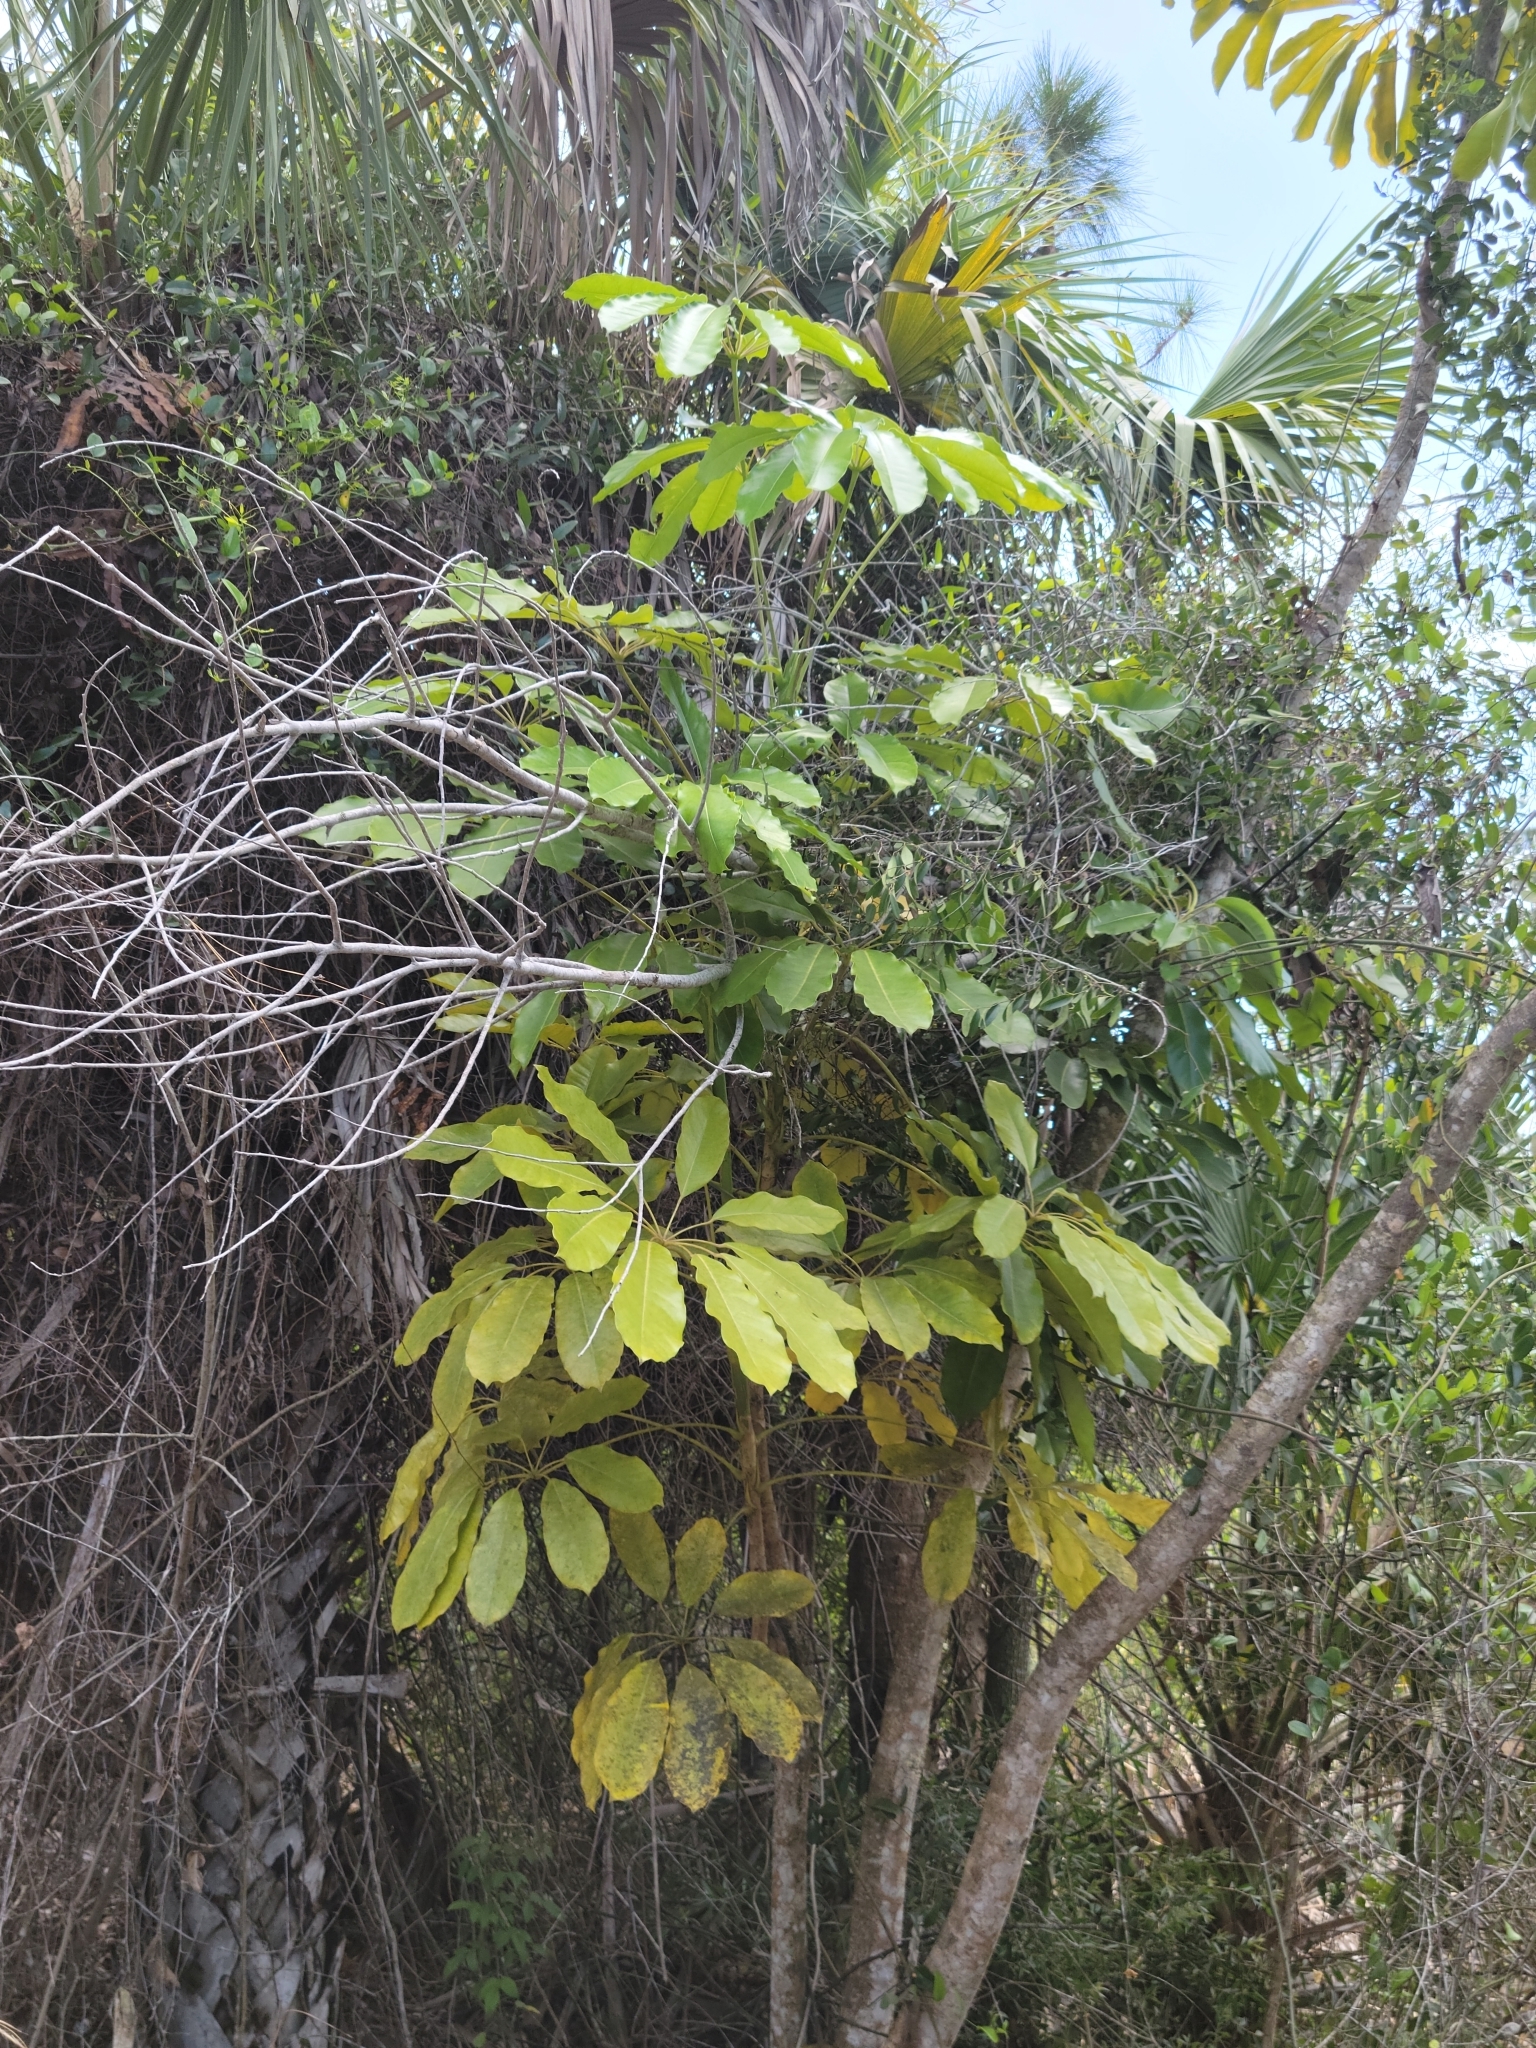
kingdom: Plantae
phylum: Tracheophyta
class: Magnoliopsida
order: Apiales
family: Araliaceae
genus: Heptapleurum
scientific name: Heptapleurum actinophyllum
